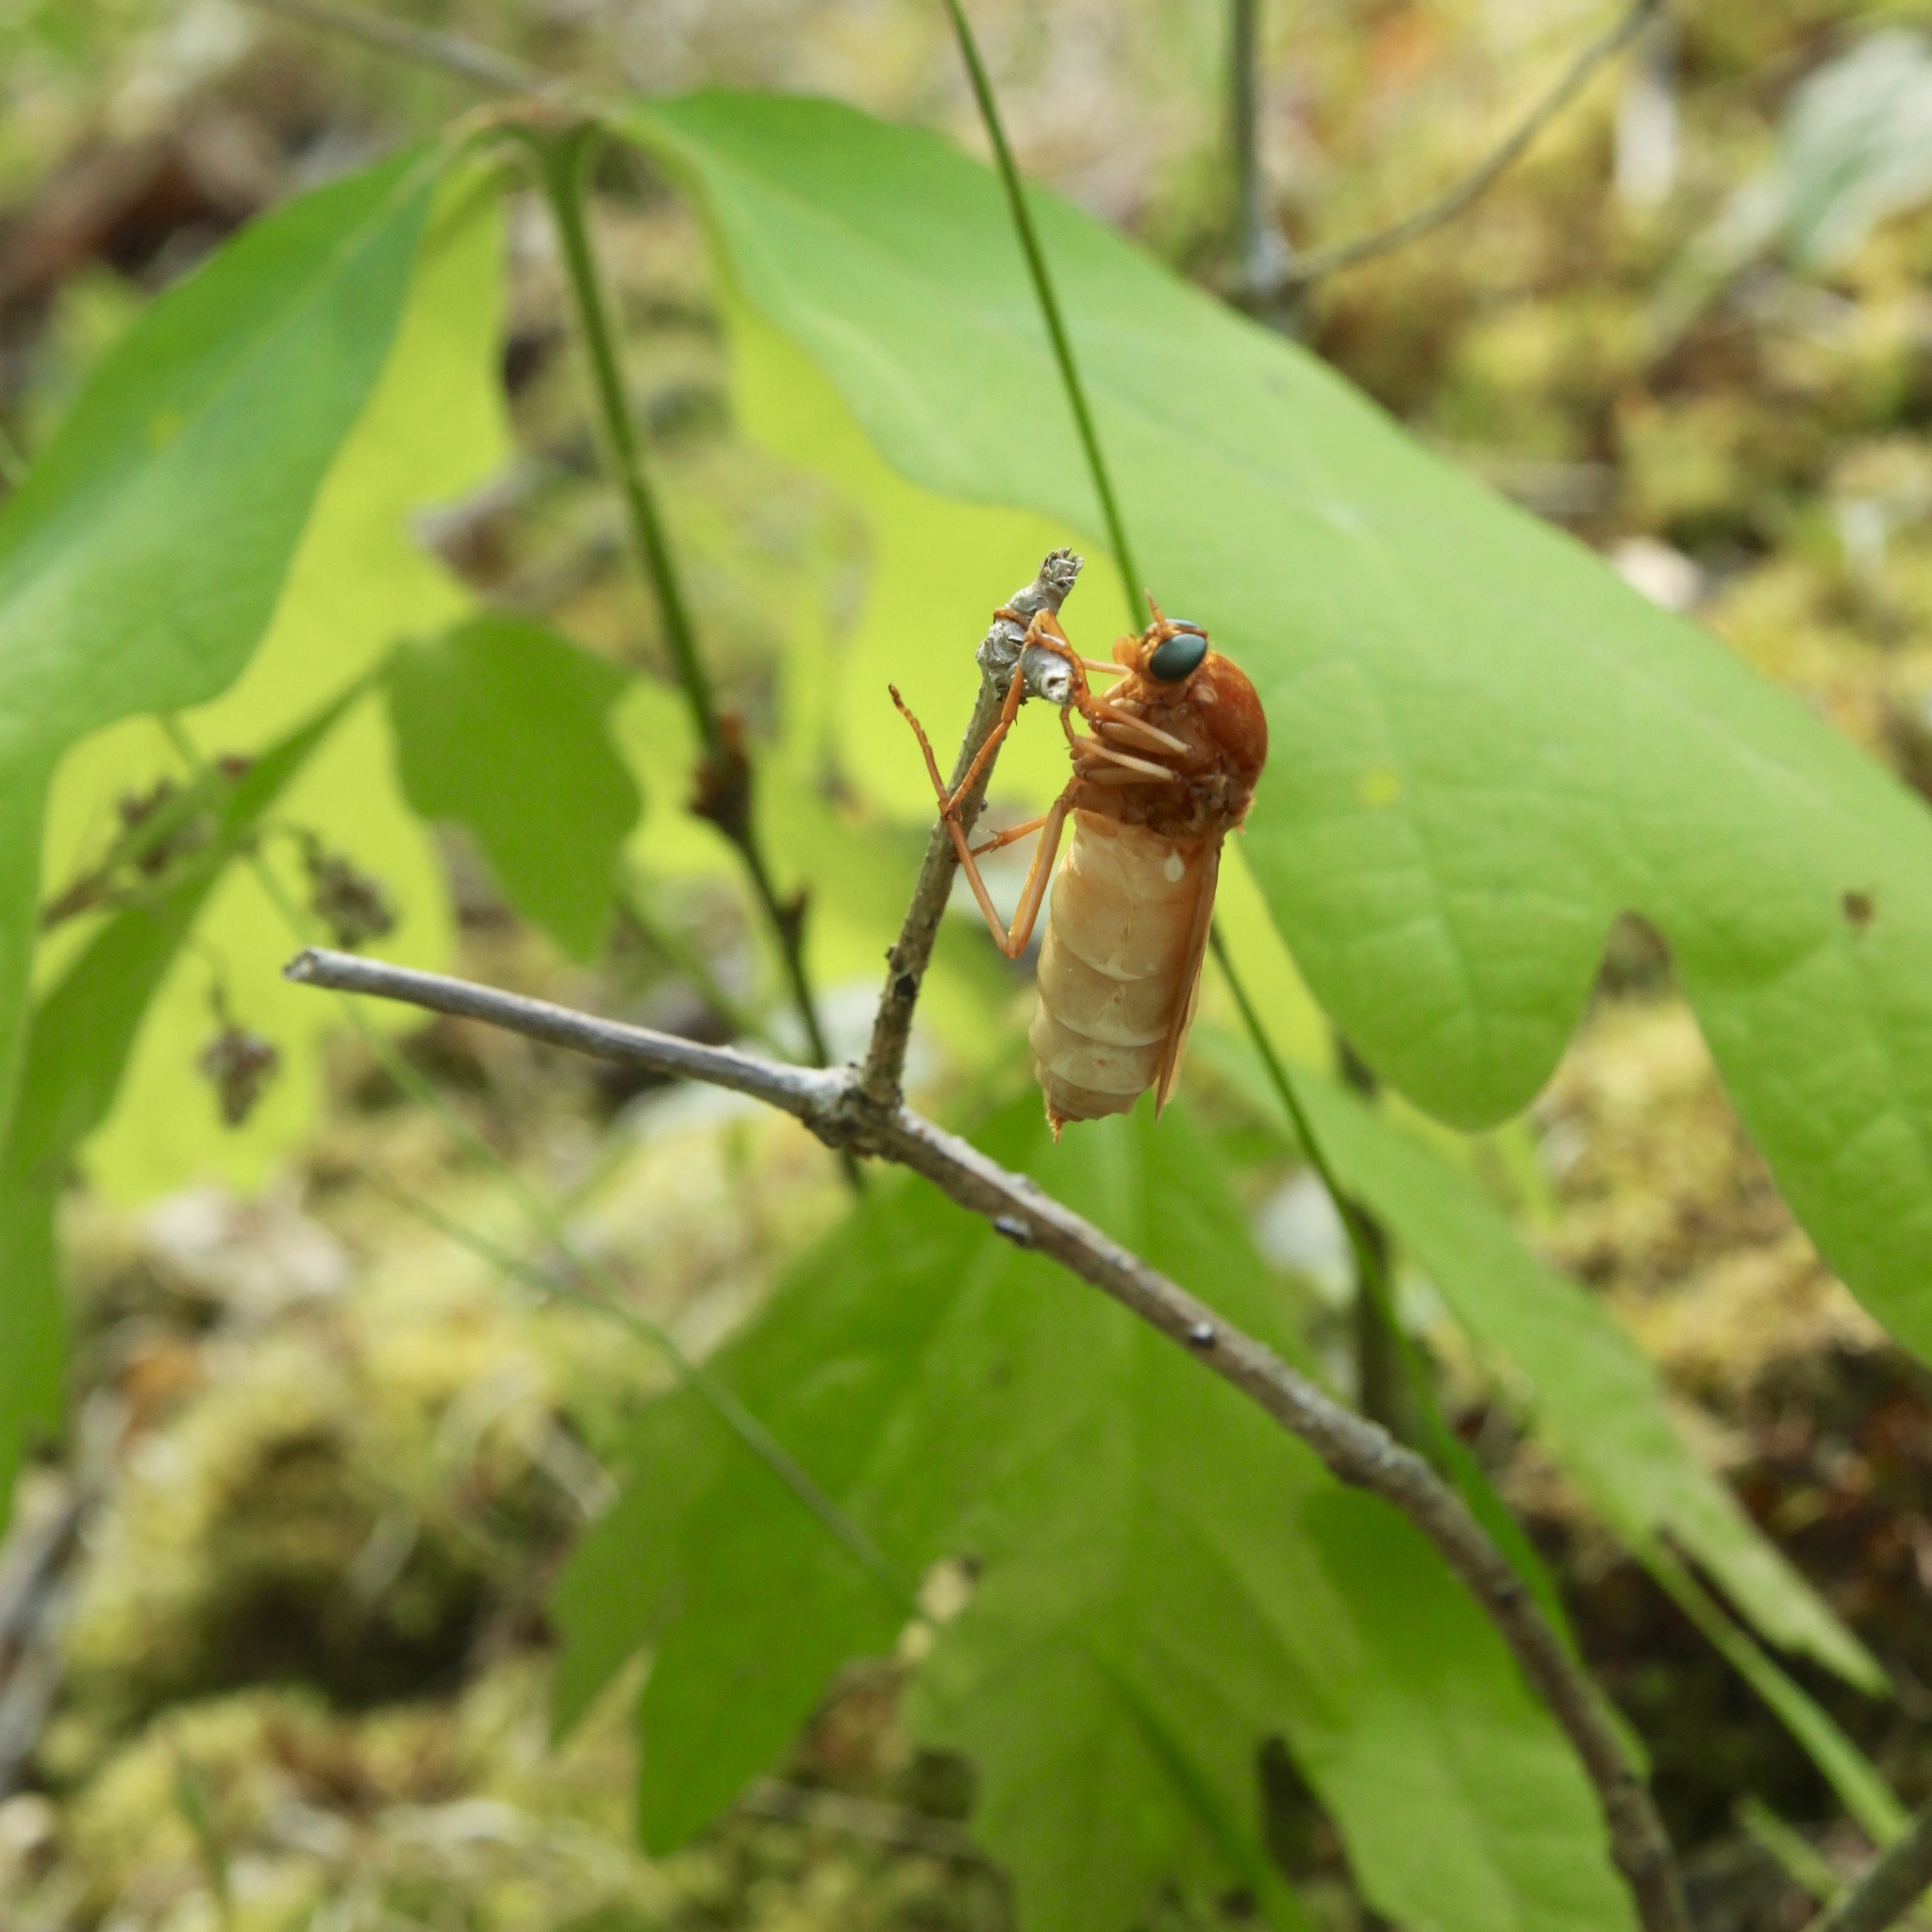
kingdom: Animalia
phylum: Arthropoda
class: Insecta
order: Diptera
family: Xylophagidae
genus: Coenomyia
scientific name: Coenomyia ferruginea
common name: Stink fly
